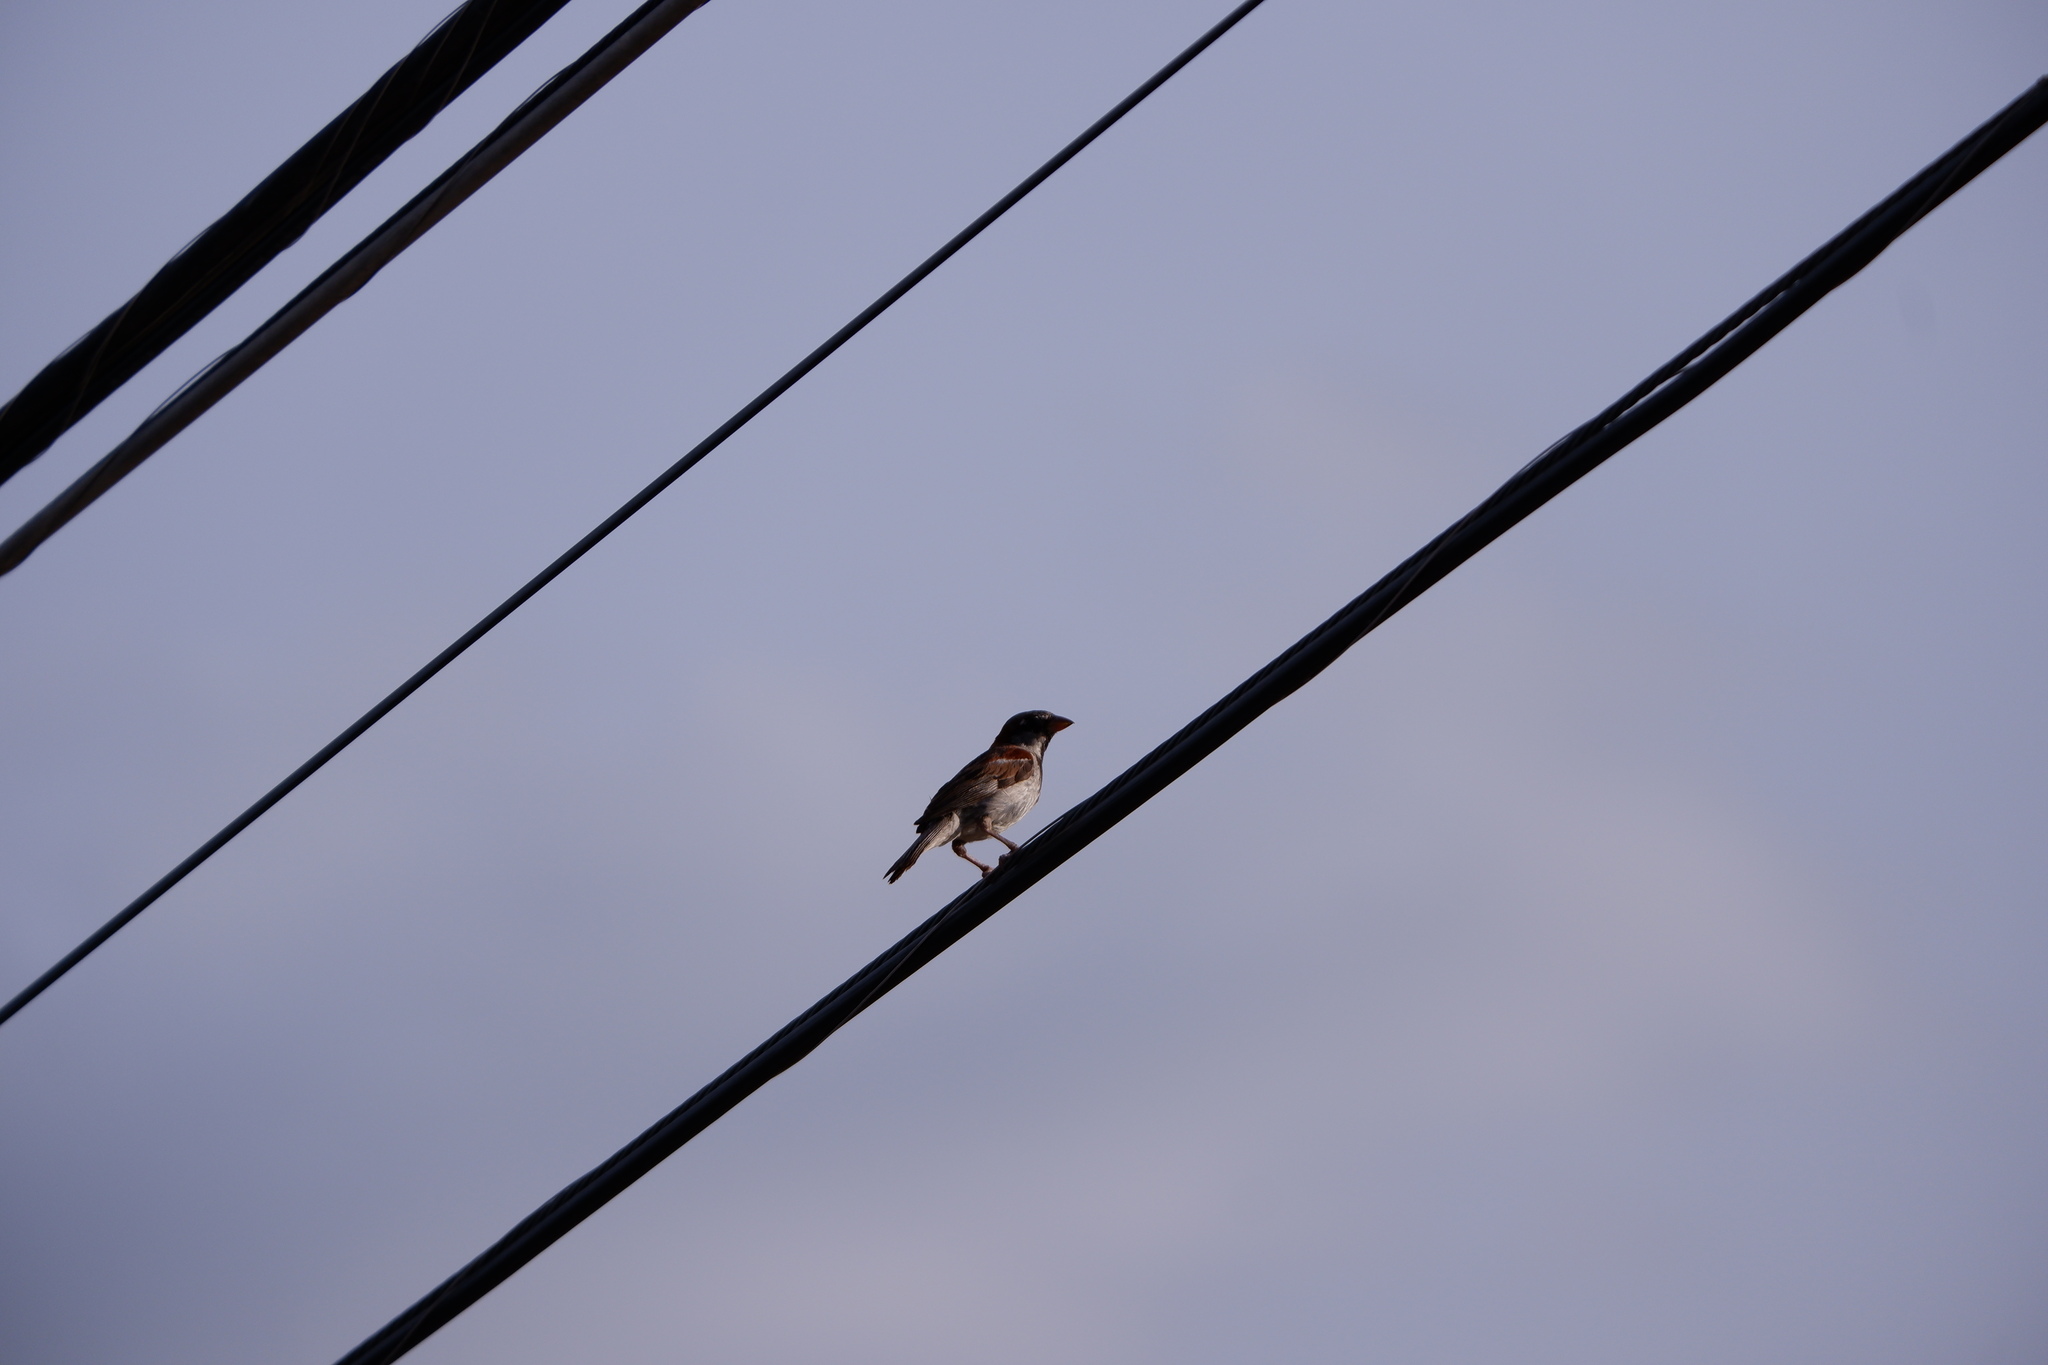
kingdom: Animalia
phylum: Chordata
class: Aves
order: Passeriformes
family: Passeridae
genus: Passer
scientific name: Passer domesticus
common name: House sparrow
